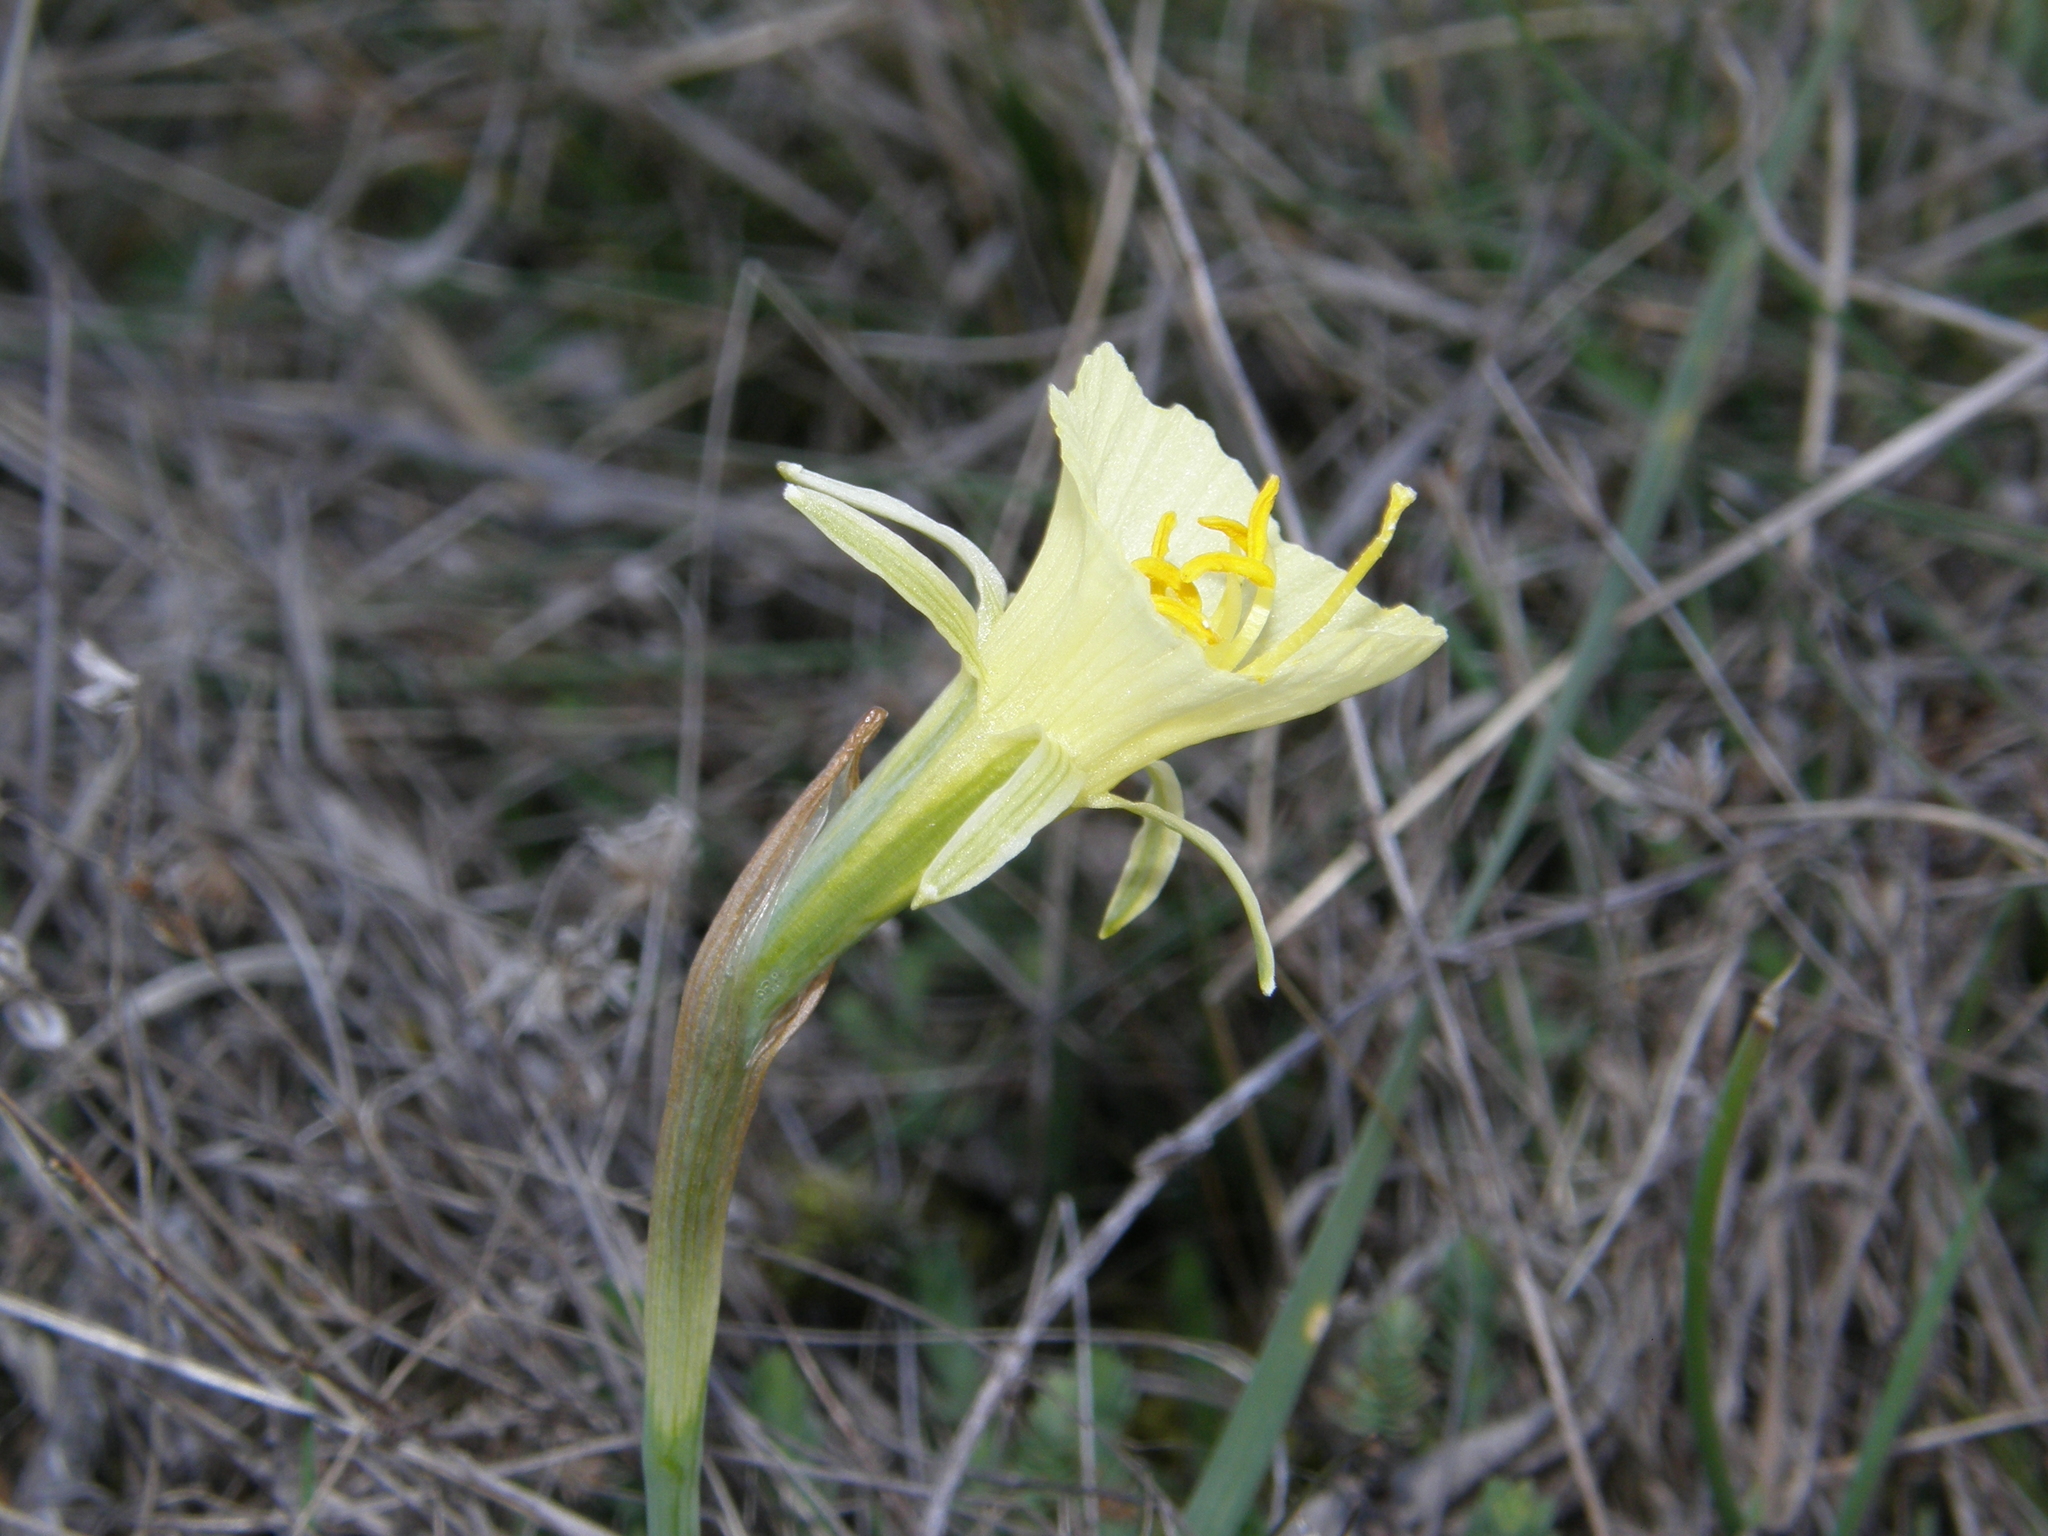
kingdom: Plantae
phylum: Tracheophyta
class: Liliopsida
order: Asparagales
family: Amaryllidaceae
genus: Narcissus
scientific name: Narcissus bulbocodium
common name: Hoop-petticoat daffodil
